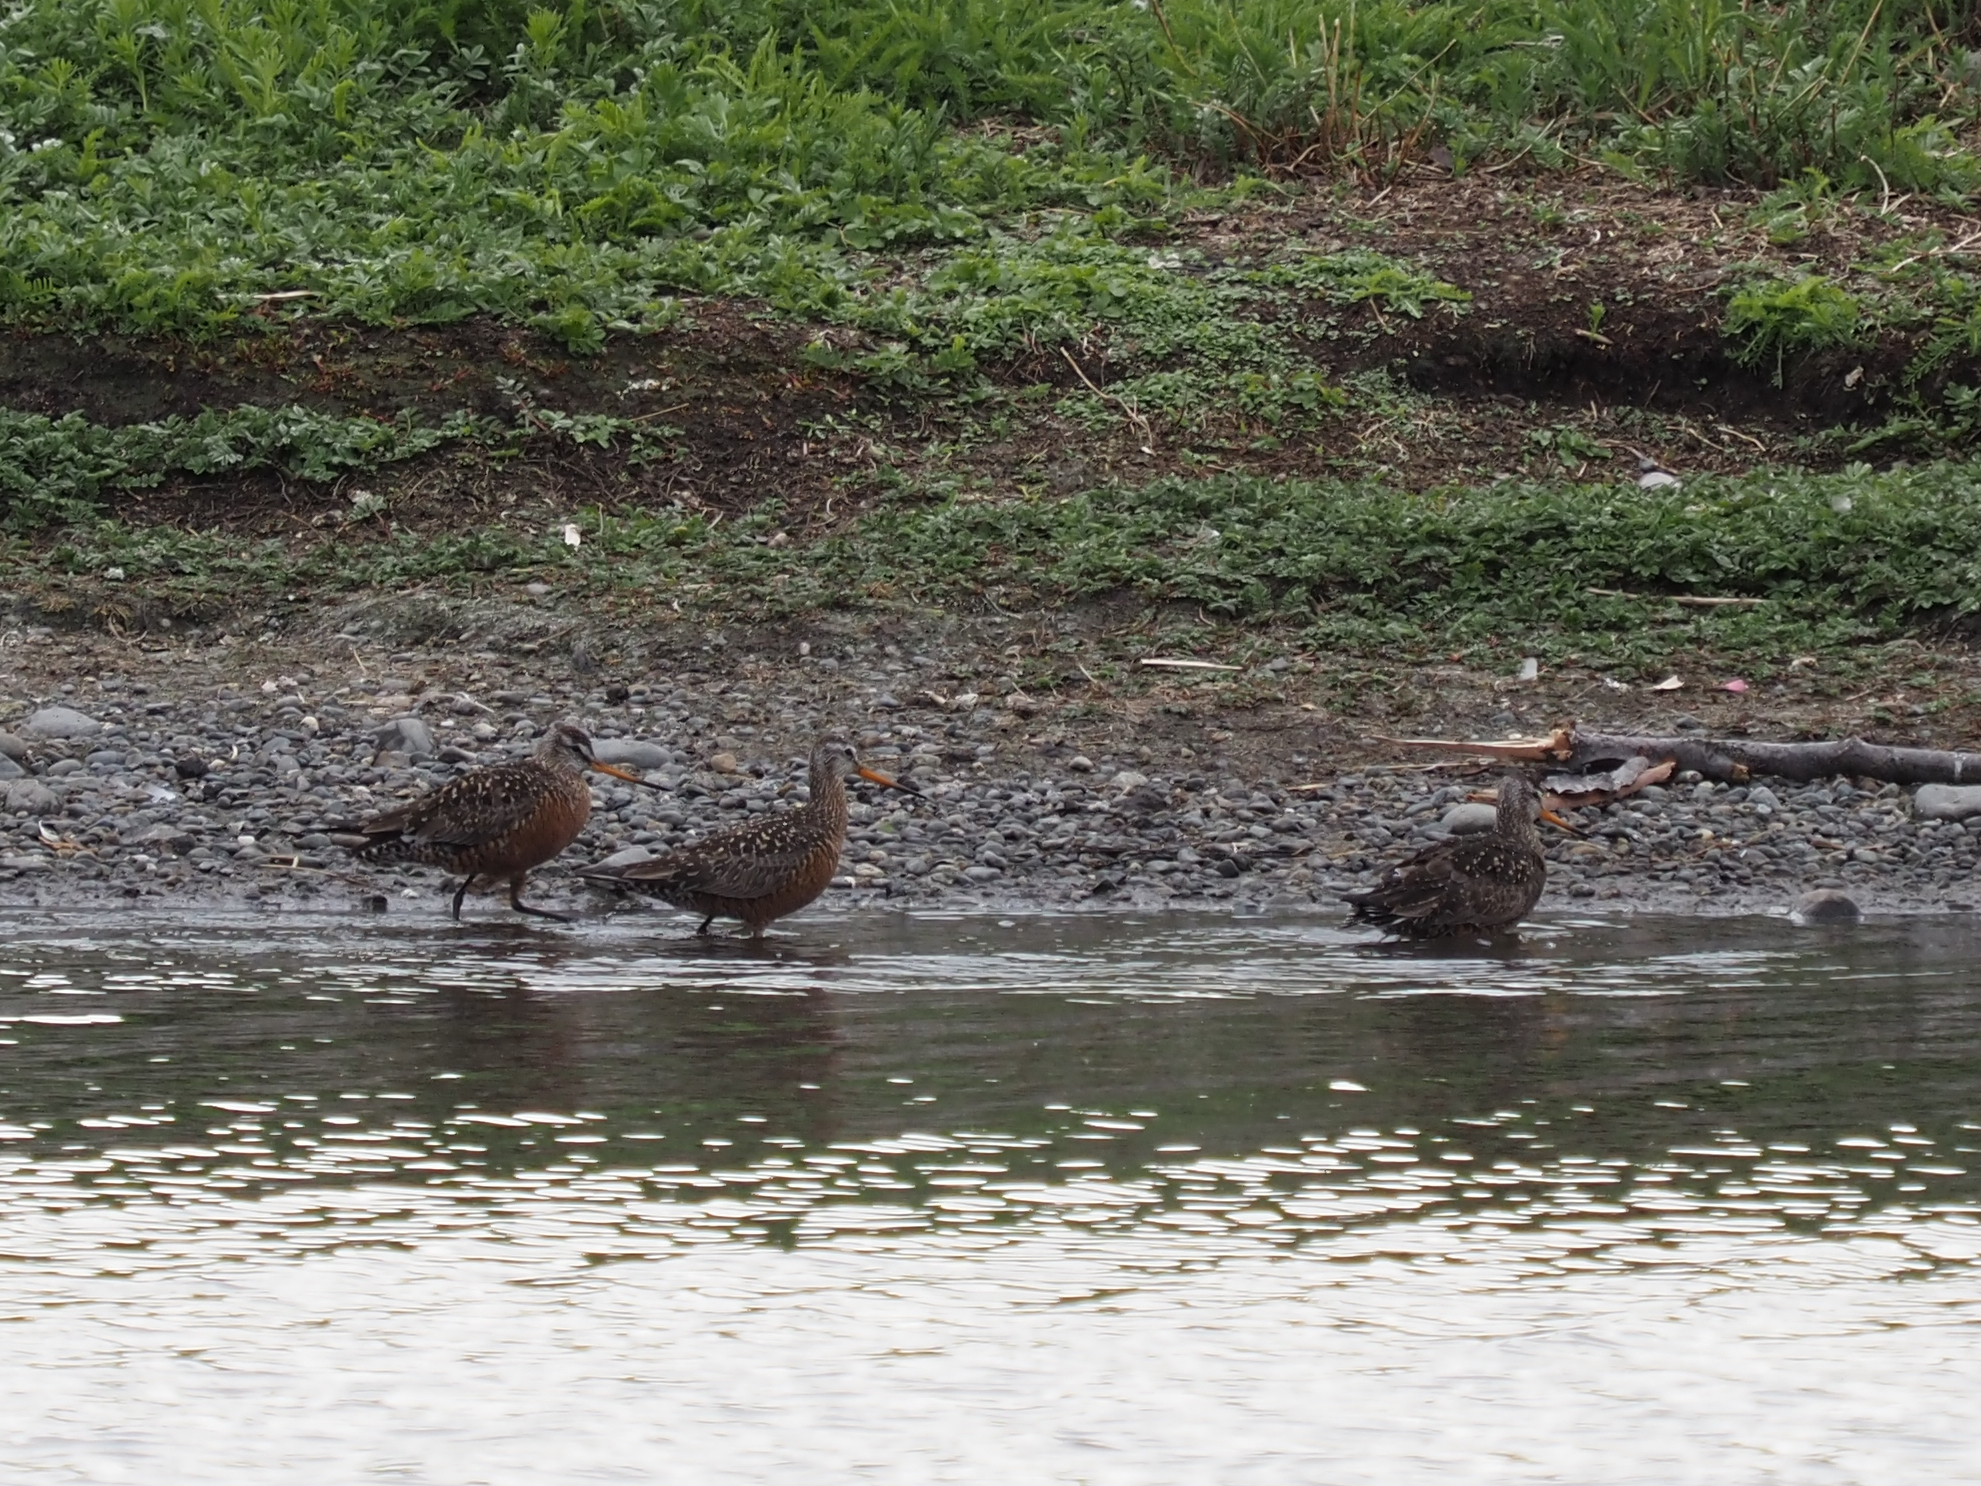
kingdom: Animalia
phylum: Chordata
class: Aves
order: Charadriiformes
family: Scolopacidae
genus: Limosa
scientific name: Limosa haemastica
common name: Hudsonian godwit
